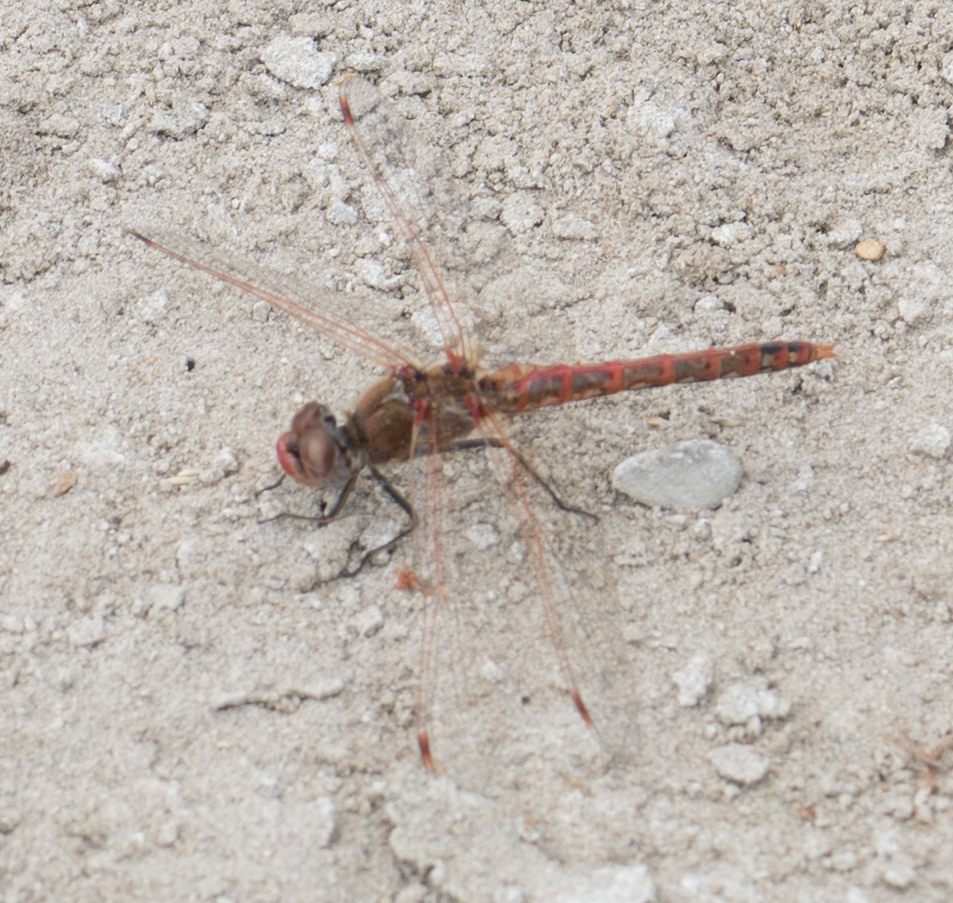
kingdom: Animalia
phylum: Arthropoda
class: Insecta
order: Odonata
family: Libellulidae
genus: Sympetrum
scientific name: Sympetrum corruptum
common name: Variegated meadowhawk
